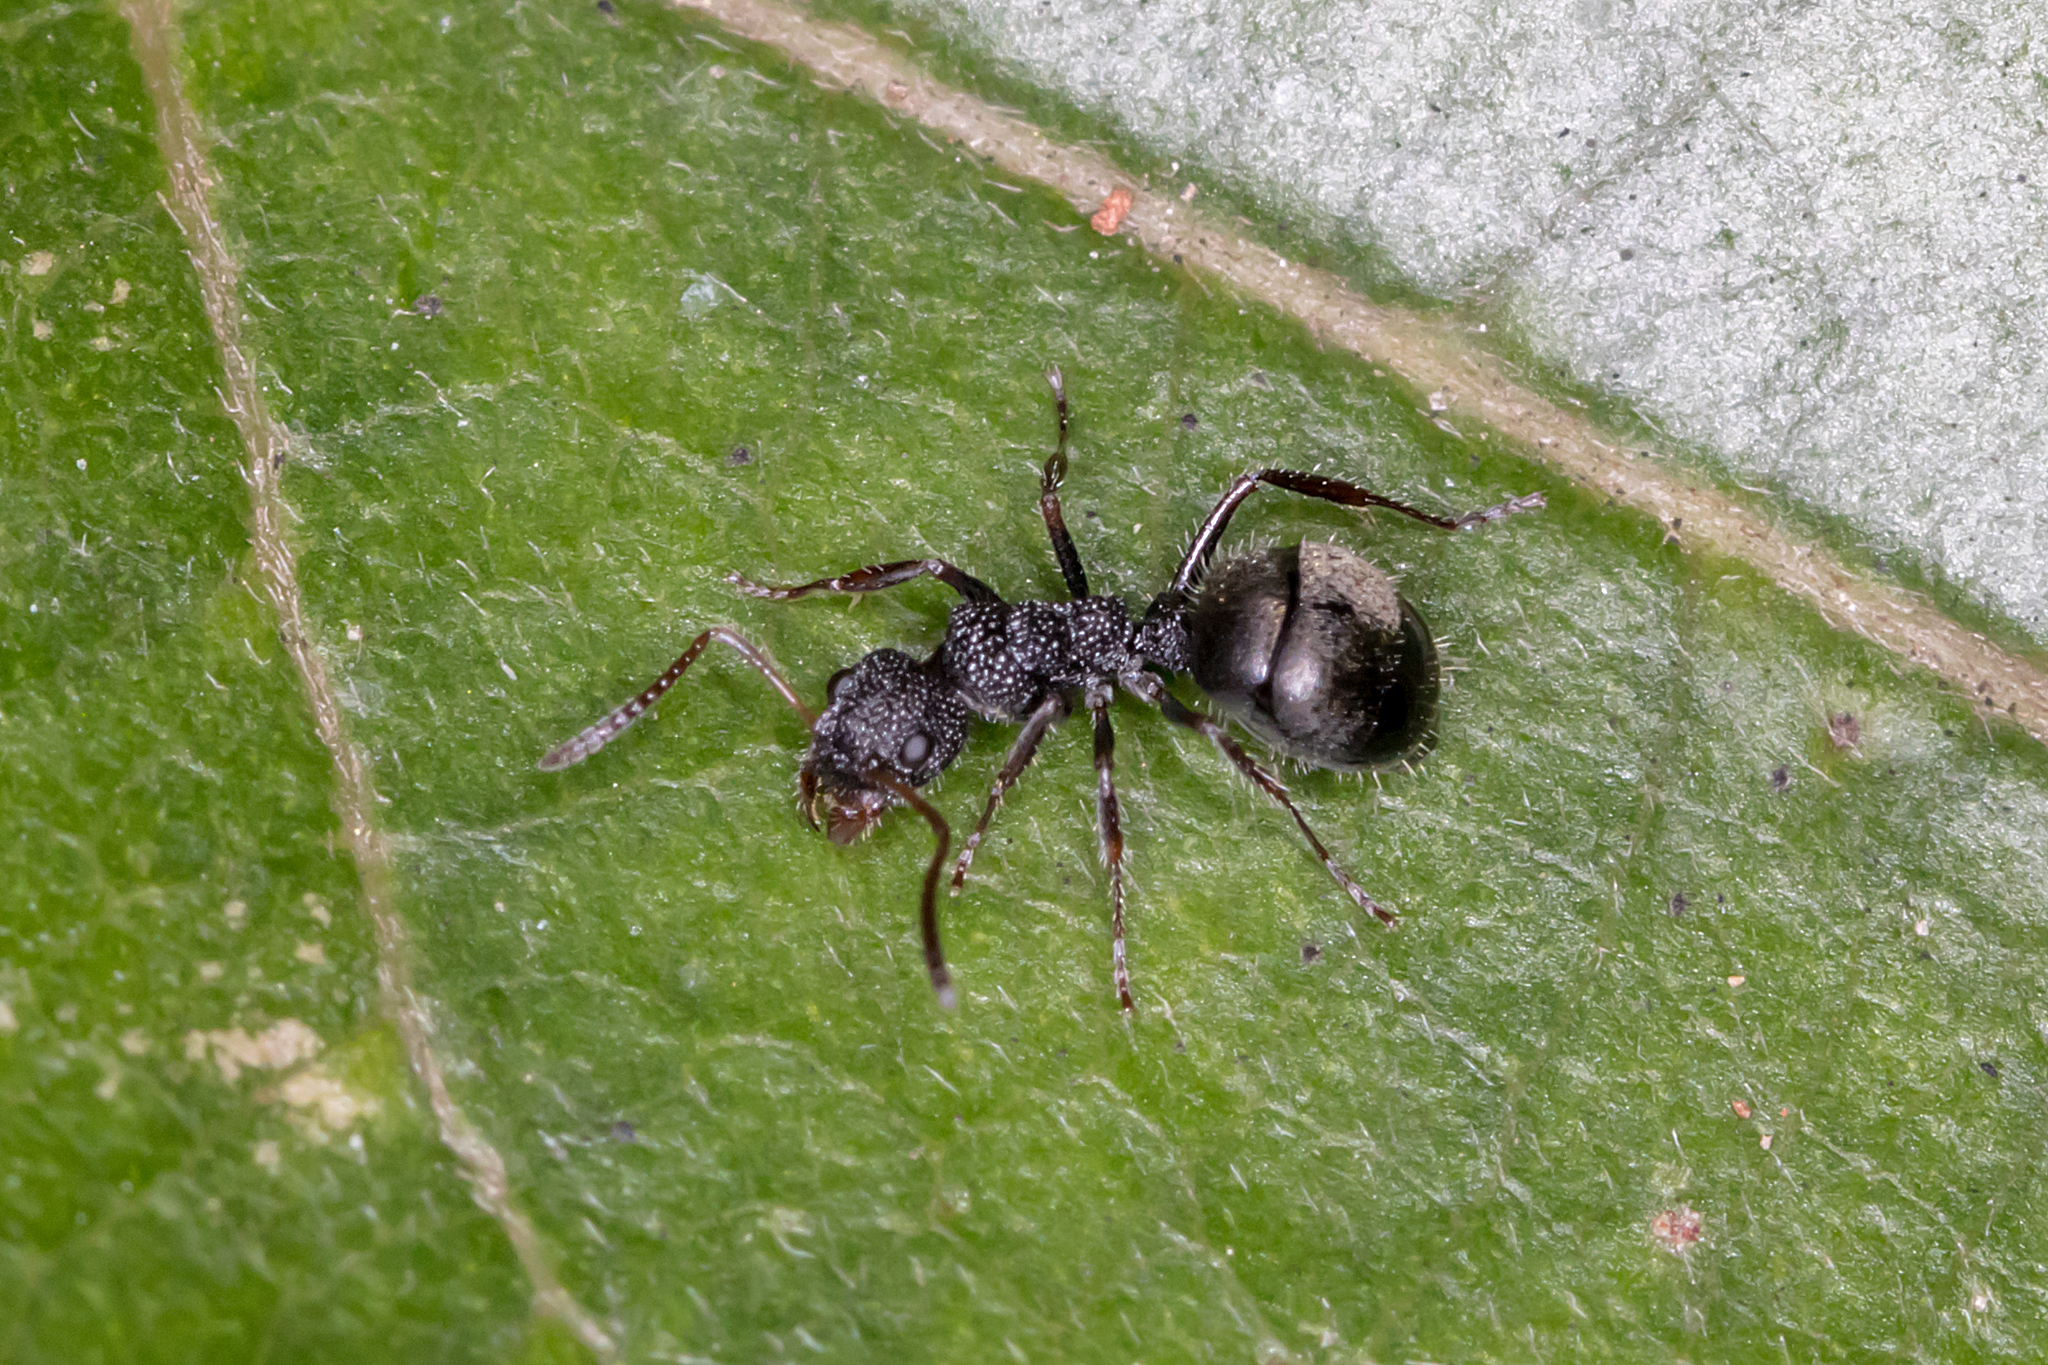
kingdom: Animalia
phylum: Arthropoda
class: Insecta
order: Hymenoptera
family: Formicidae
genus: Dolichoderus
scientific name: Dolichoderus scrobiculatus
